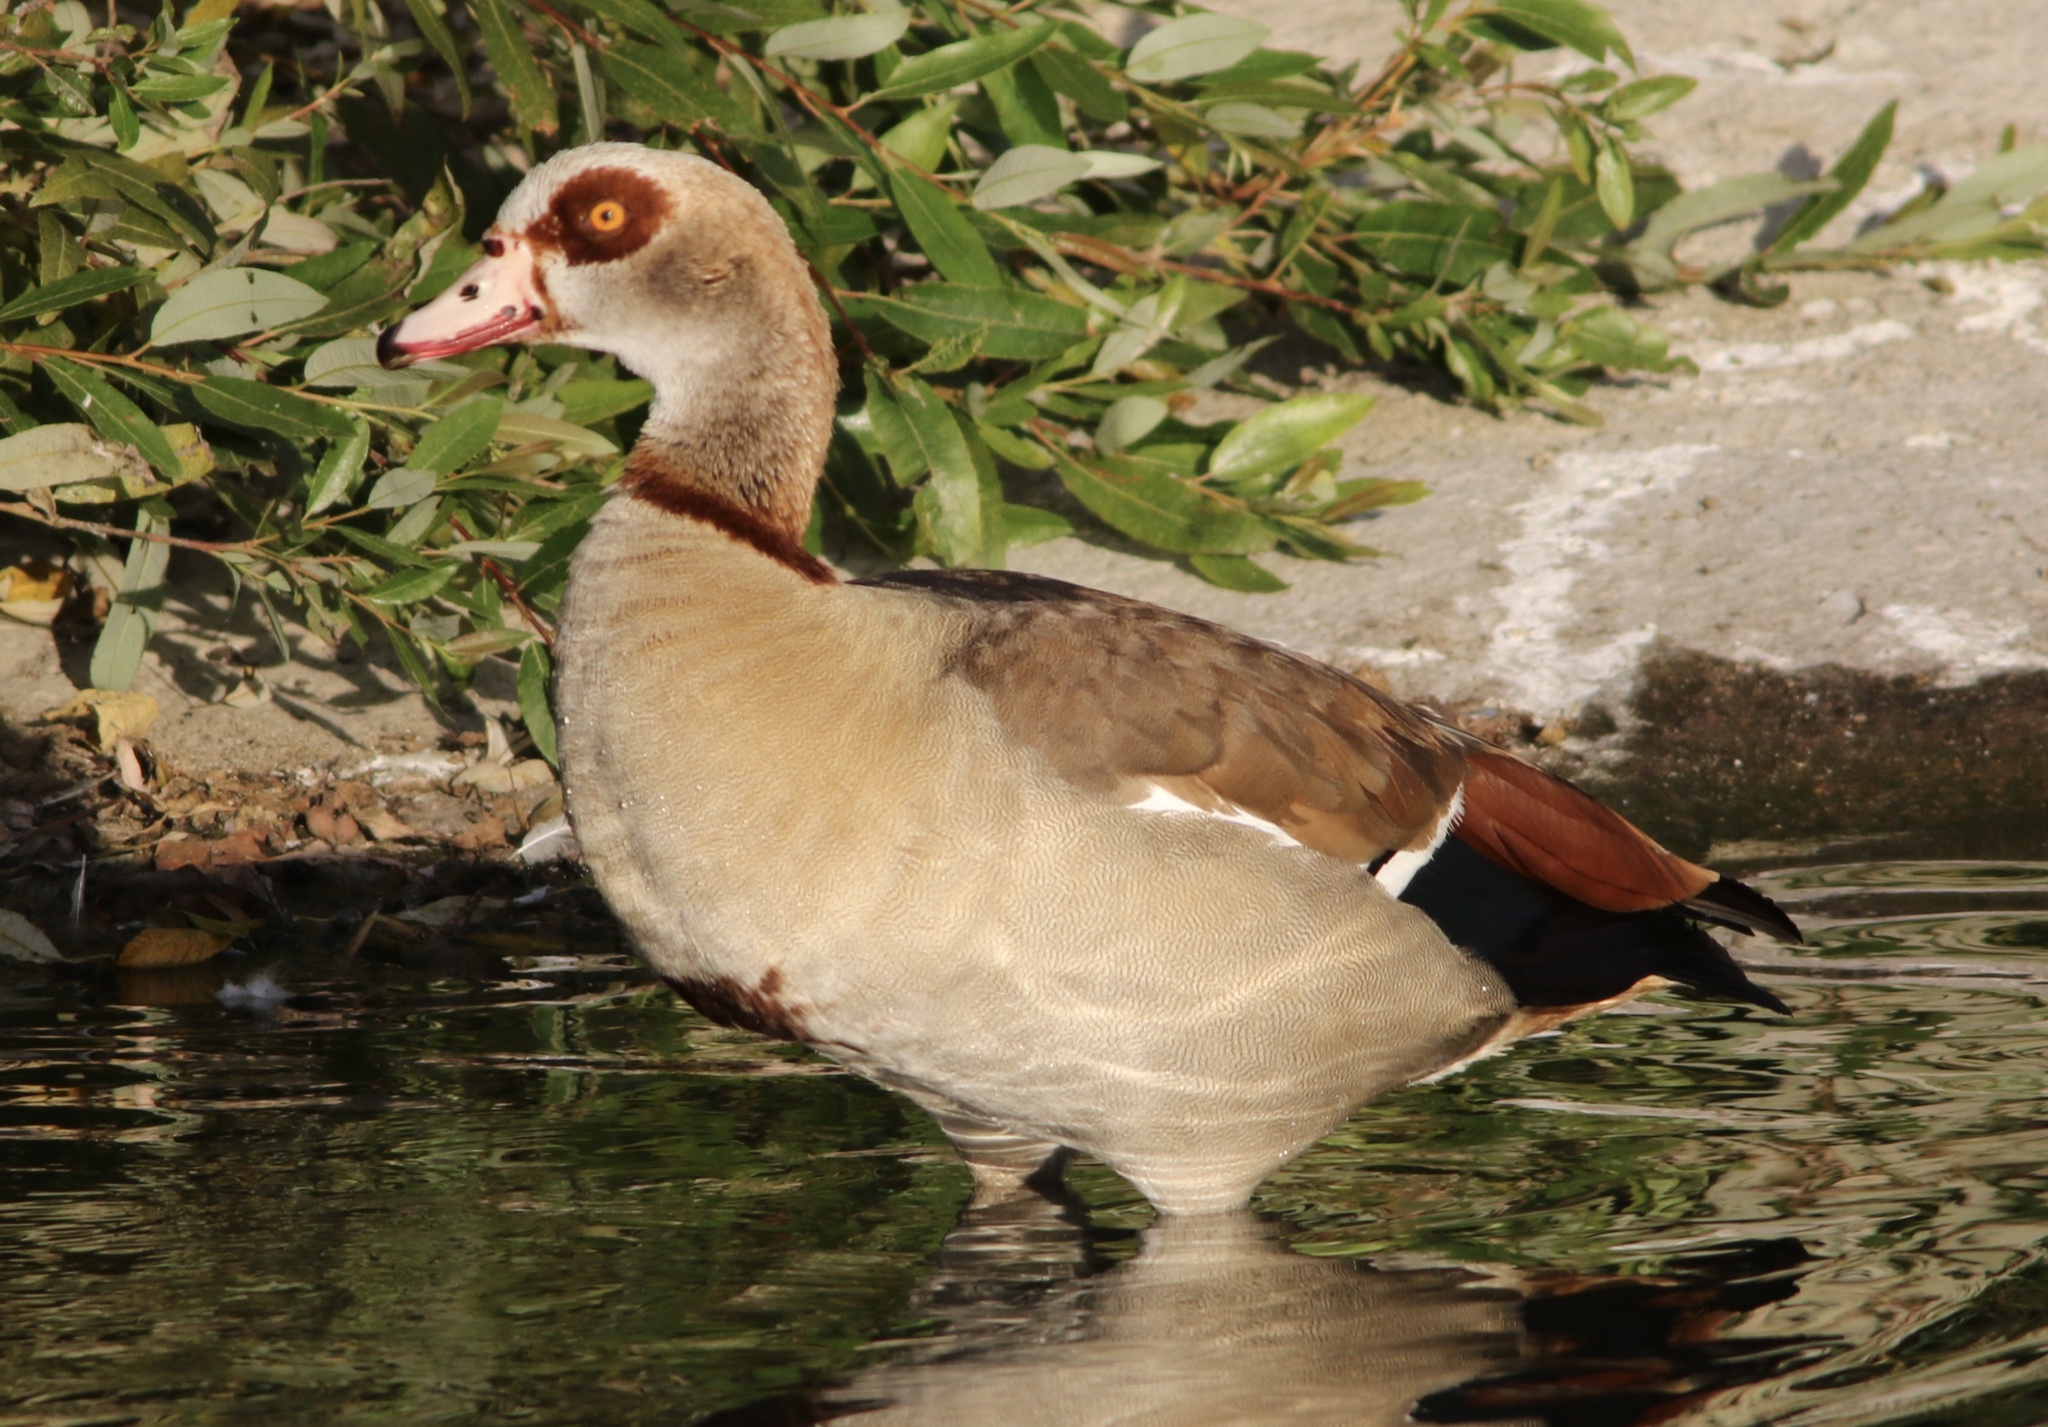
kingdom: Animalia
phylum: Chordata
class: Aves
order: Anseriformes
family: Anatidae
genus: Alopochen
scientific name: Alopochen aegyptiaca
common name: Egyptian goose
